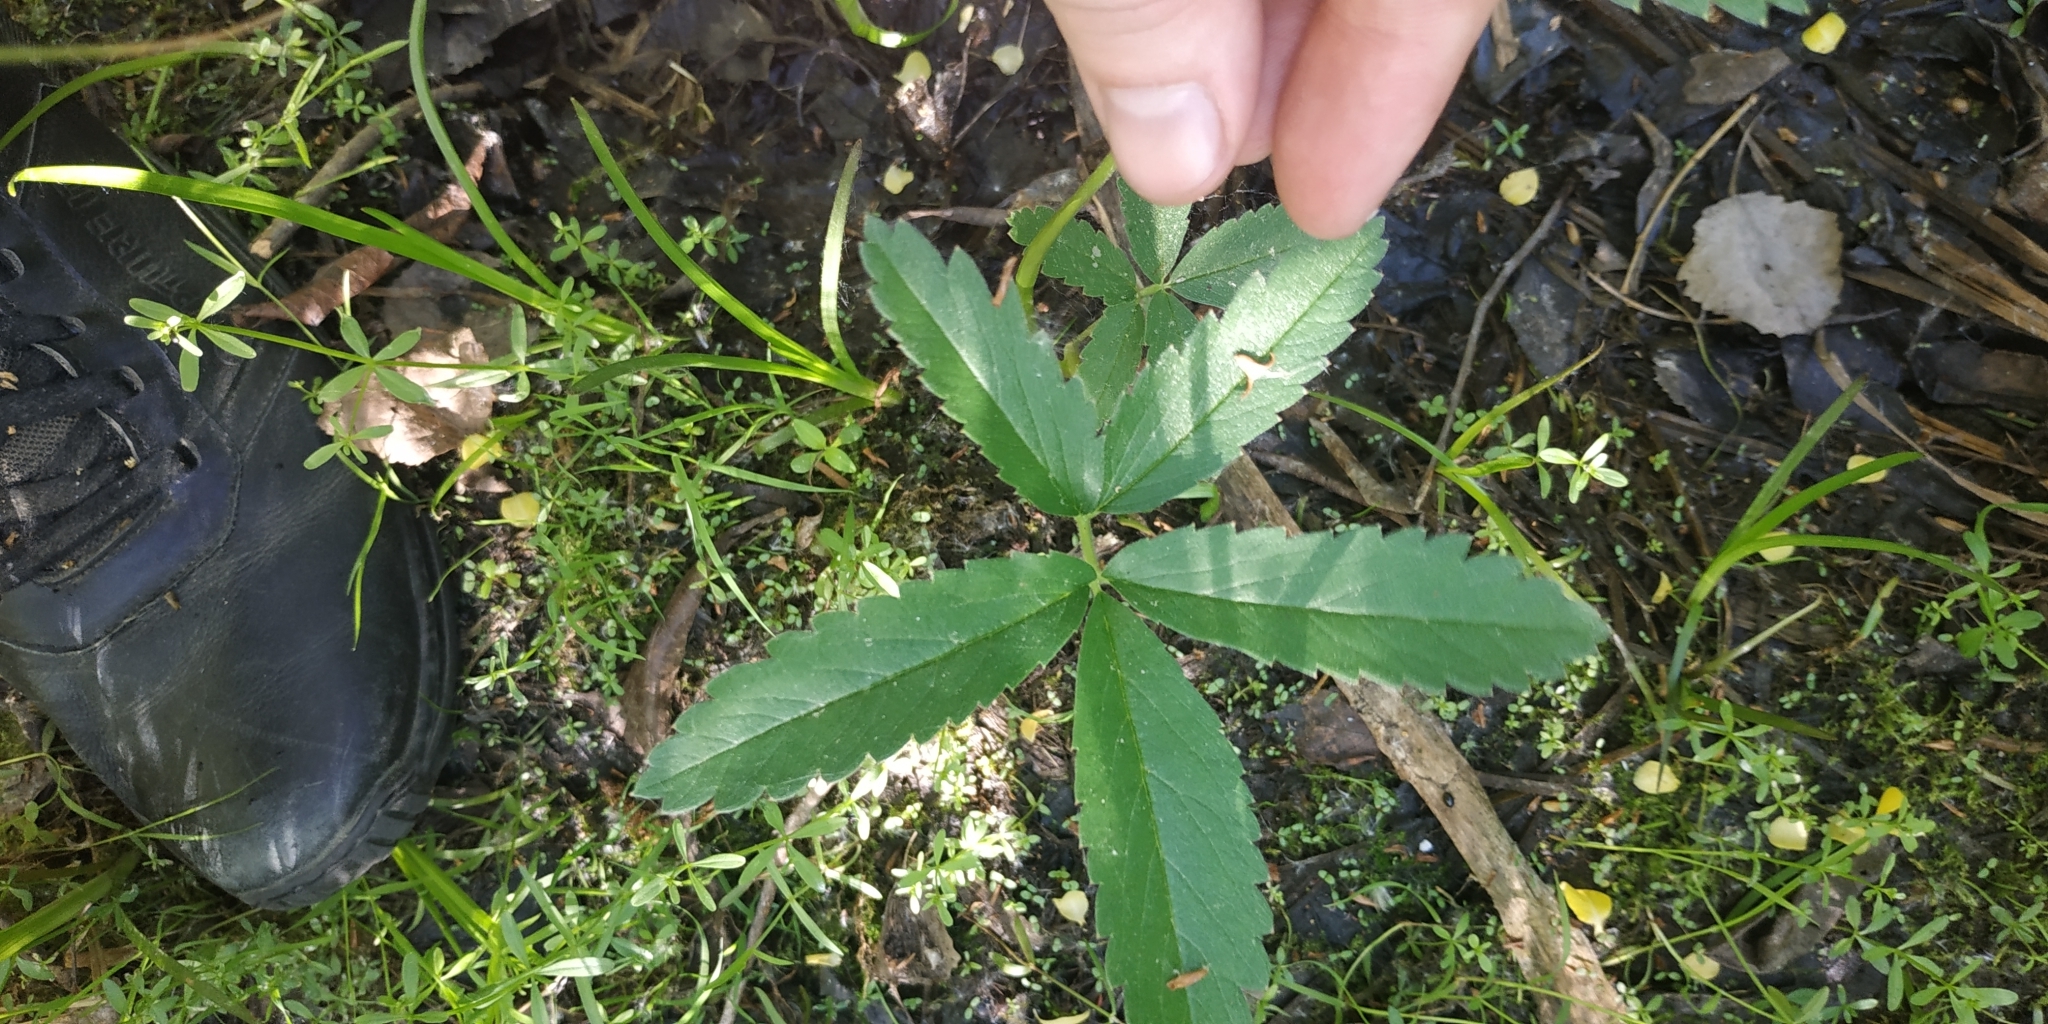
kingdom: Plantae
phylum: Tracheophyta
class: Magnoliopsida
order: Rosales
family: Rosaceae
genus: Comarum
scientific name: Comarum palustre
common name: Marsh cinquefoil
